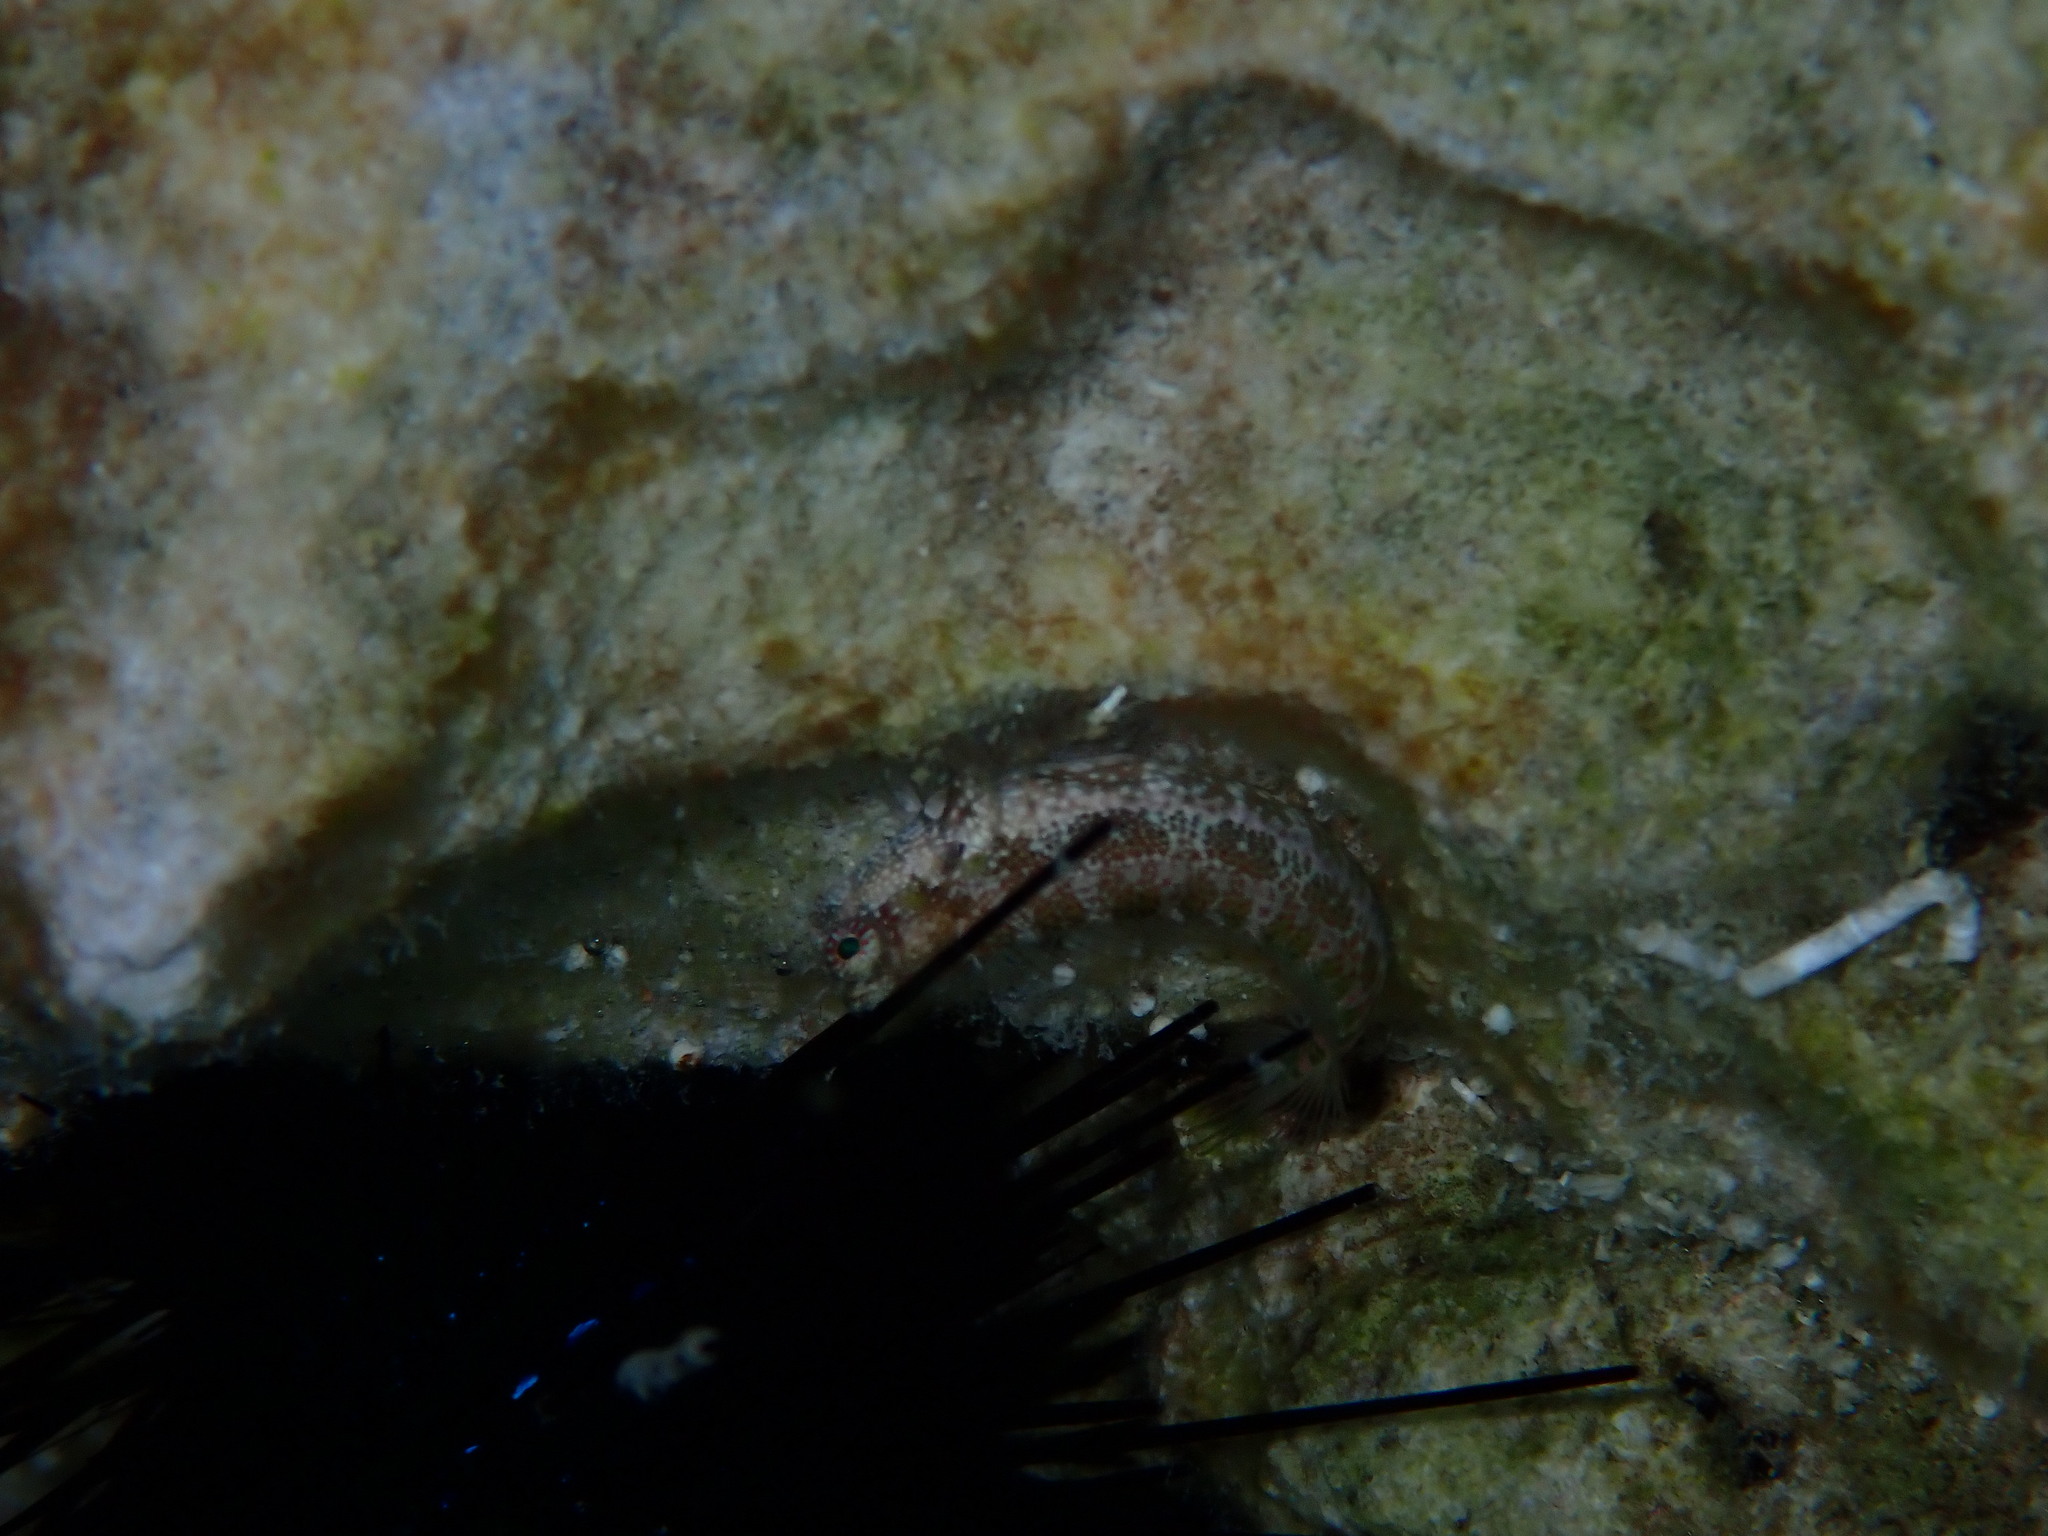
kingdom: Animalia
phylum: Chordata
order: Perciformes
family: Blenniidae
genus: Salarias
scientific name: Salarias guttatus
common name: Breast-spot blenny
